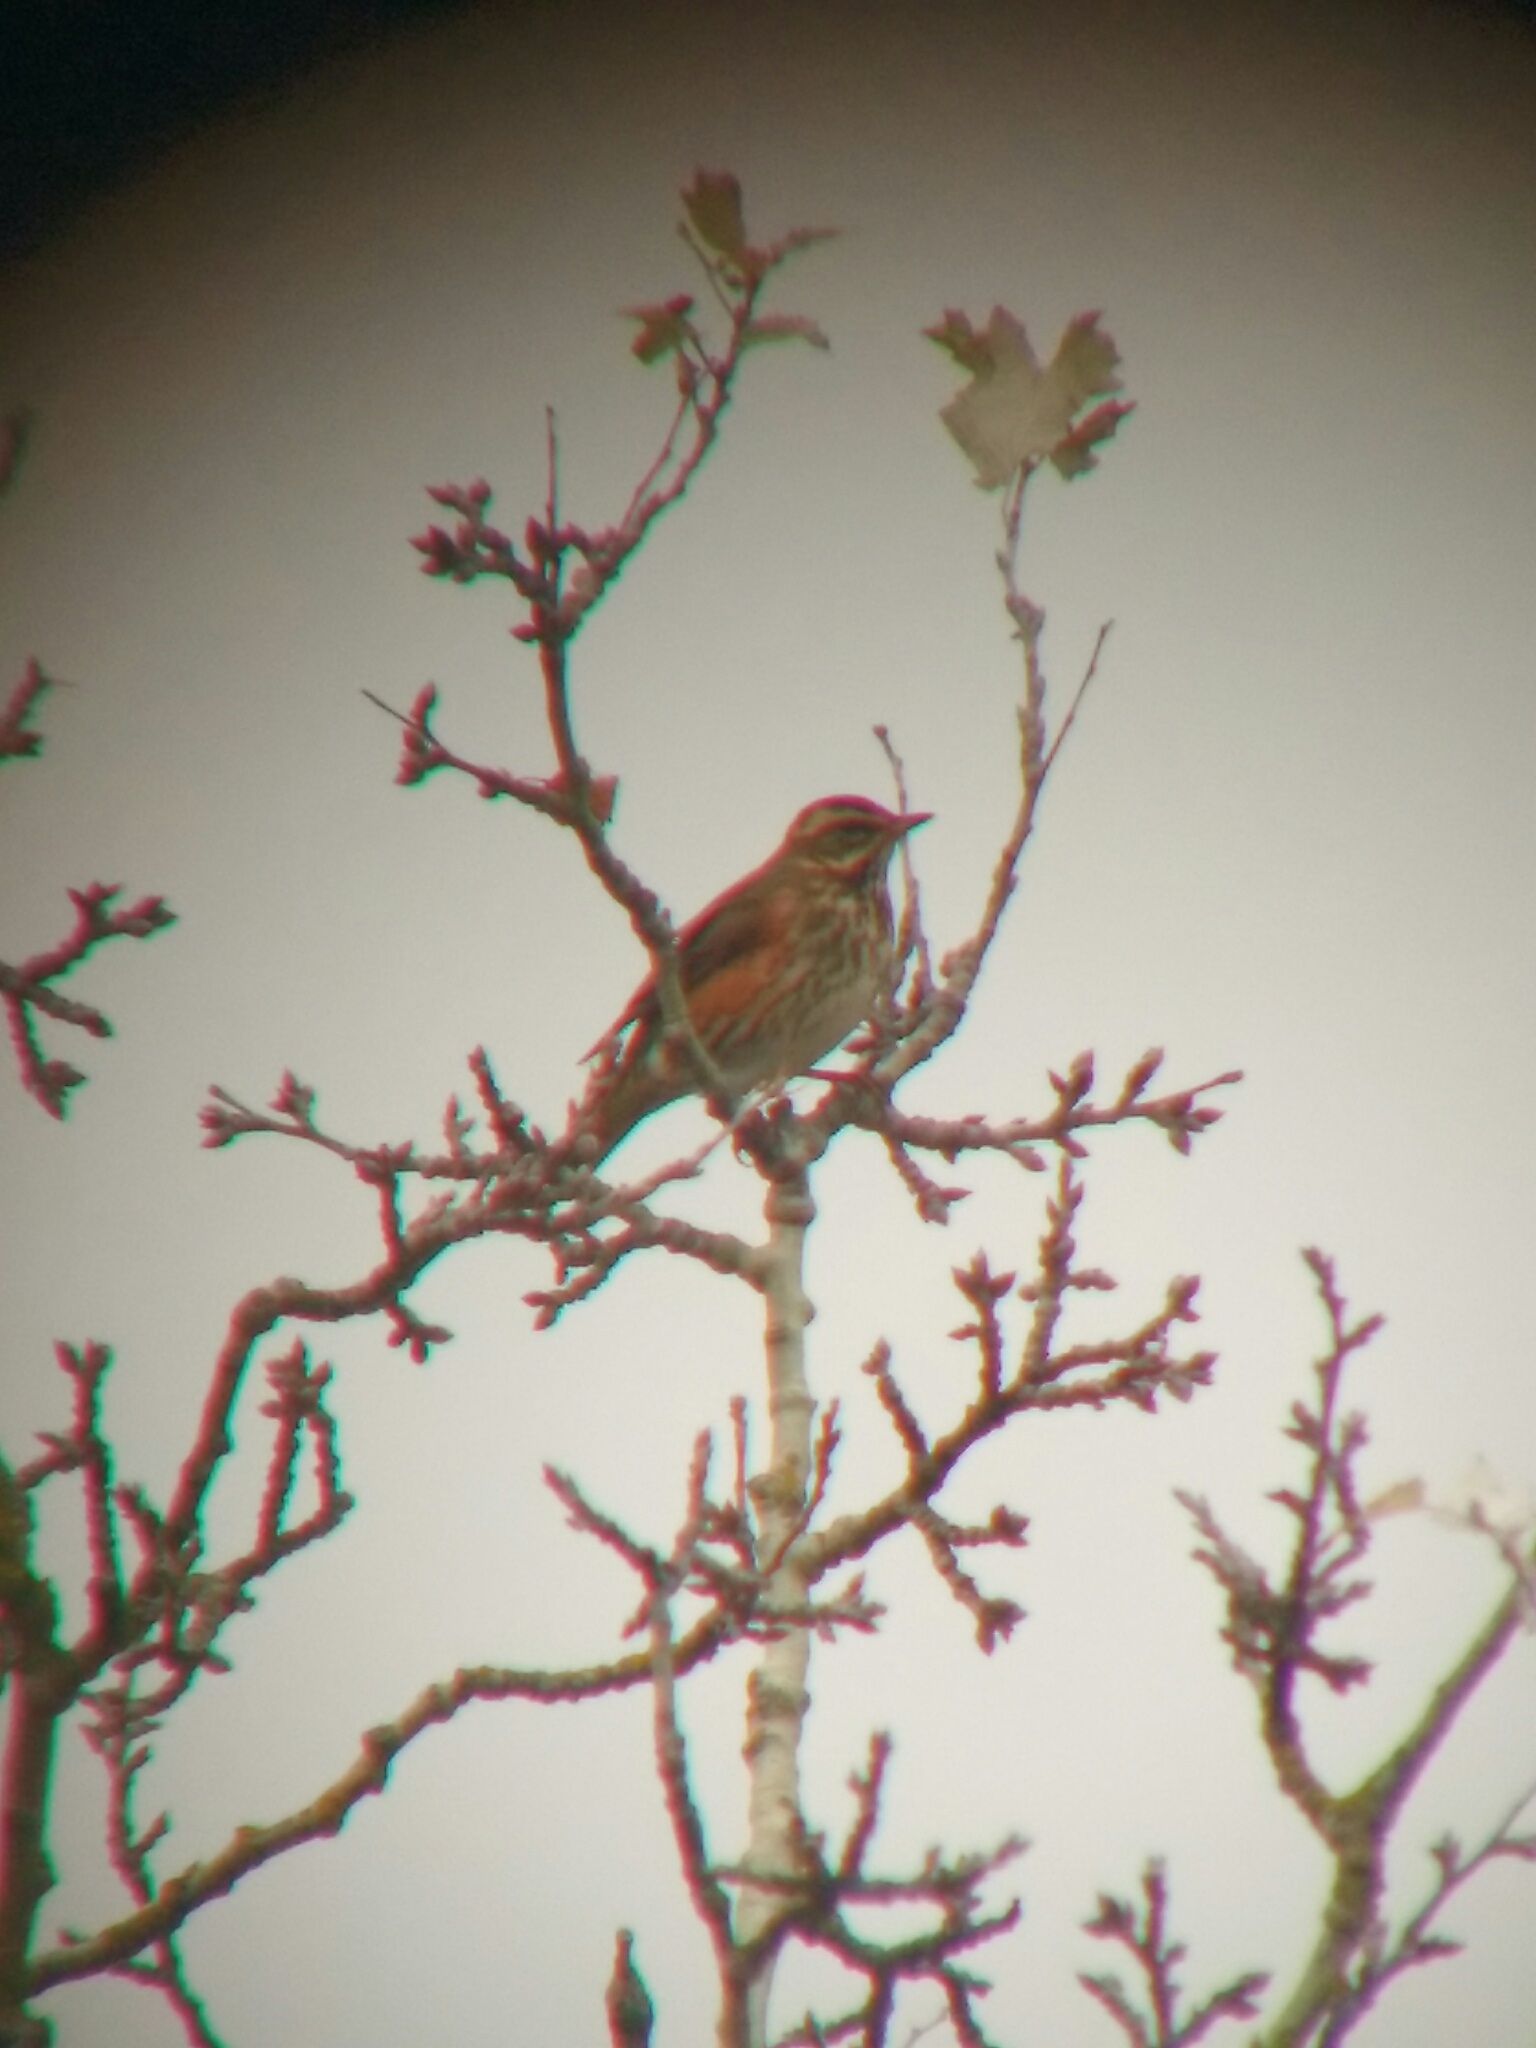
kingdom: Animalia
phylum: Chordata
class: Aves
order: Passeriformes
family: Turdidae
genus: Turdus
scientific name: Turdus iliacus
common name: Redwing
